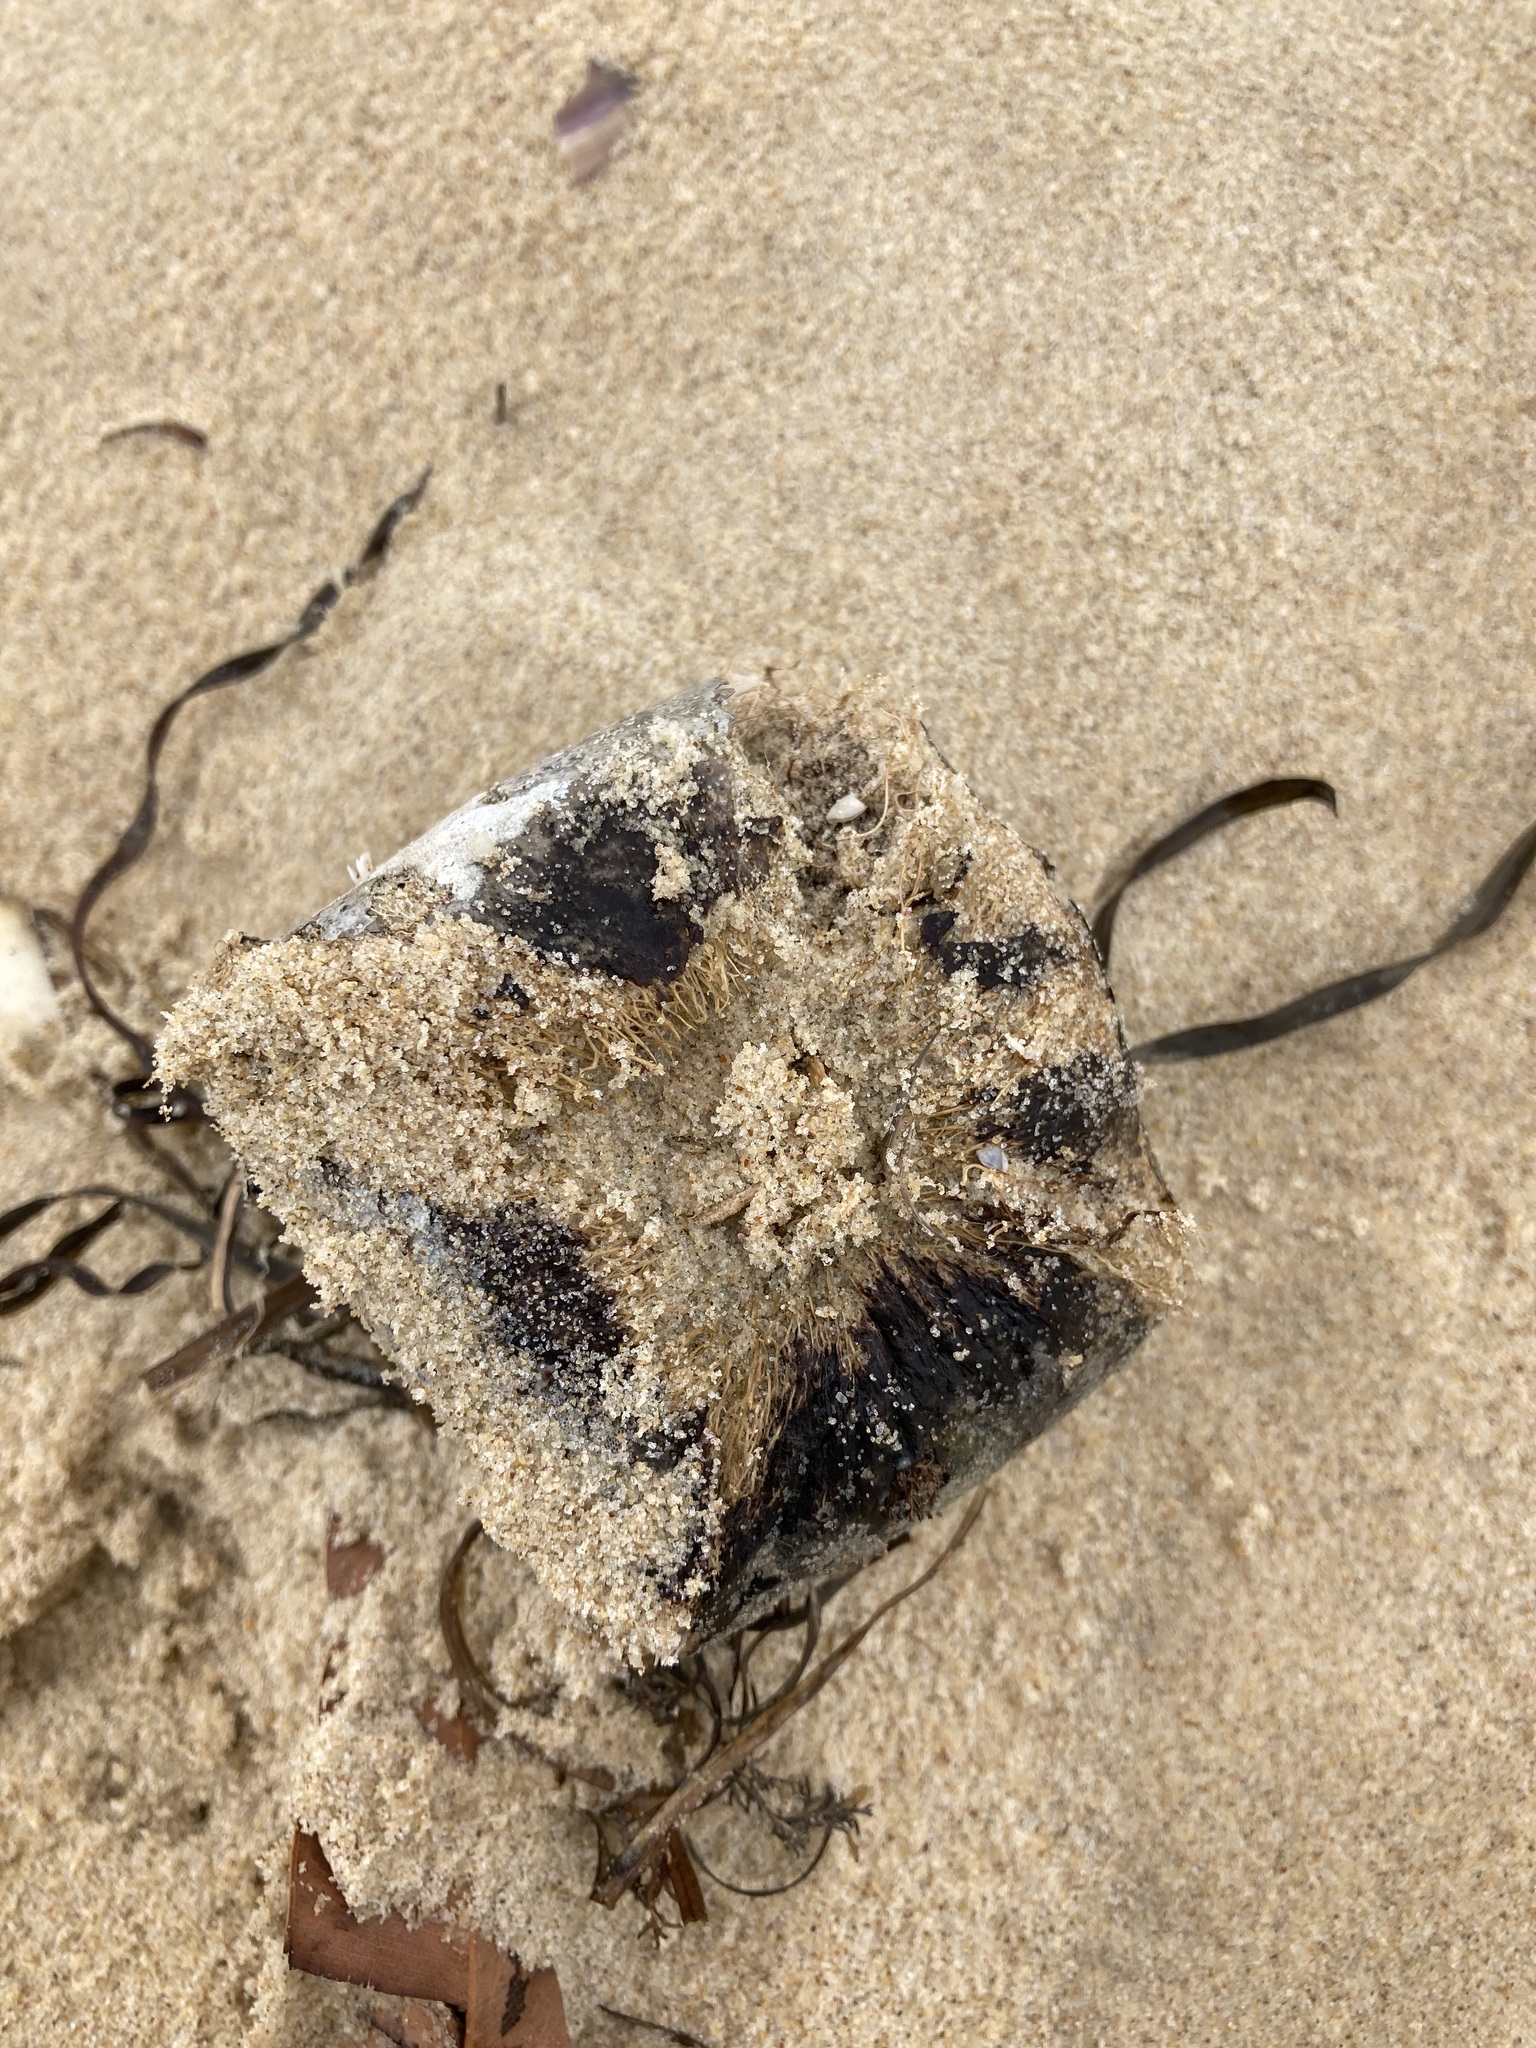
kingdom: Plantae
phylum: Tracheophyta
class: Magnoliopsida
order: Ericales
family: Lecythidaceae
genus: Barringtonia
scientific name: Barringtonia asiatica
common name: Mango-pine
